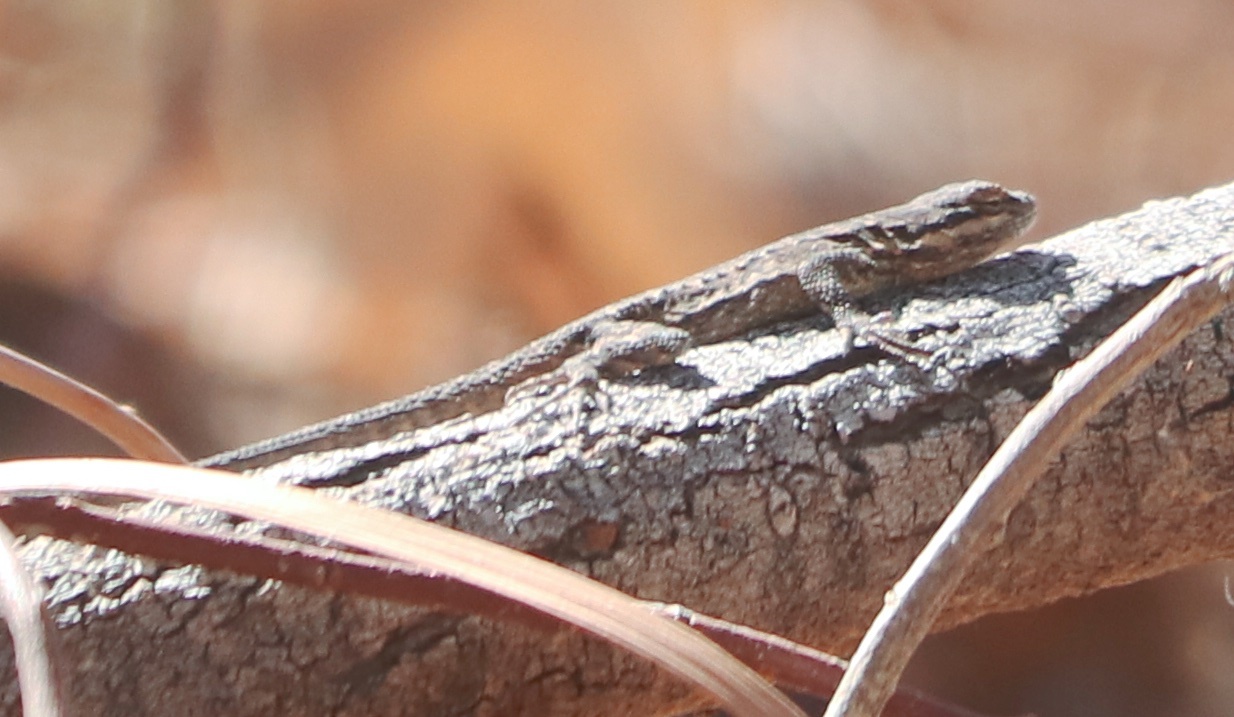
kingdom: Animalia
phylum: Chordata
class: Squamata
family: Phrynosomatidae
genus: Urosaurus
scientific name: Urosaurus ornatus
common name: Ornate tree lizard
